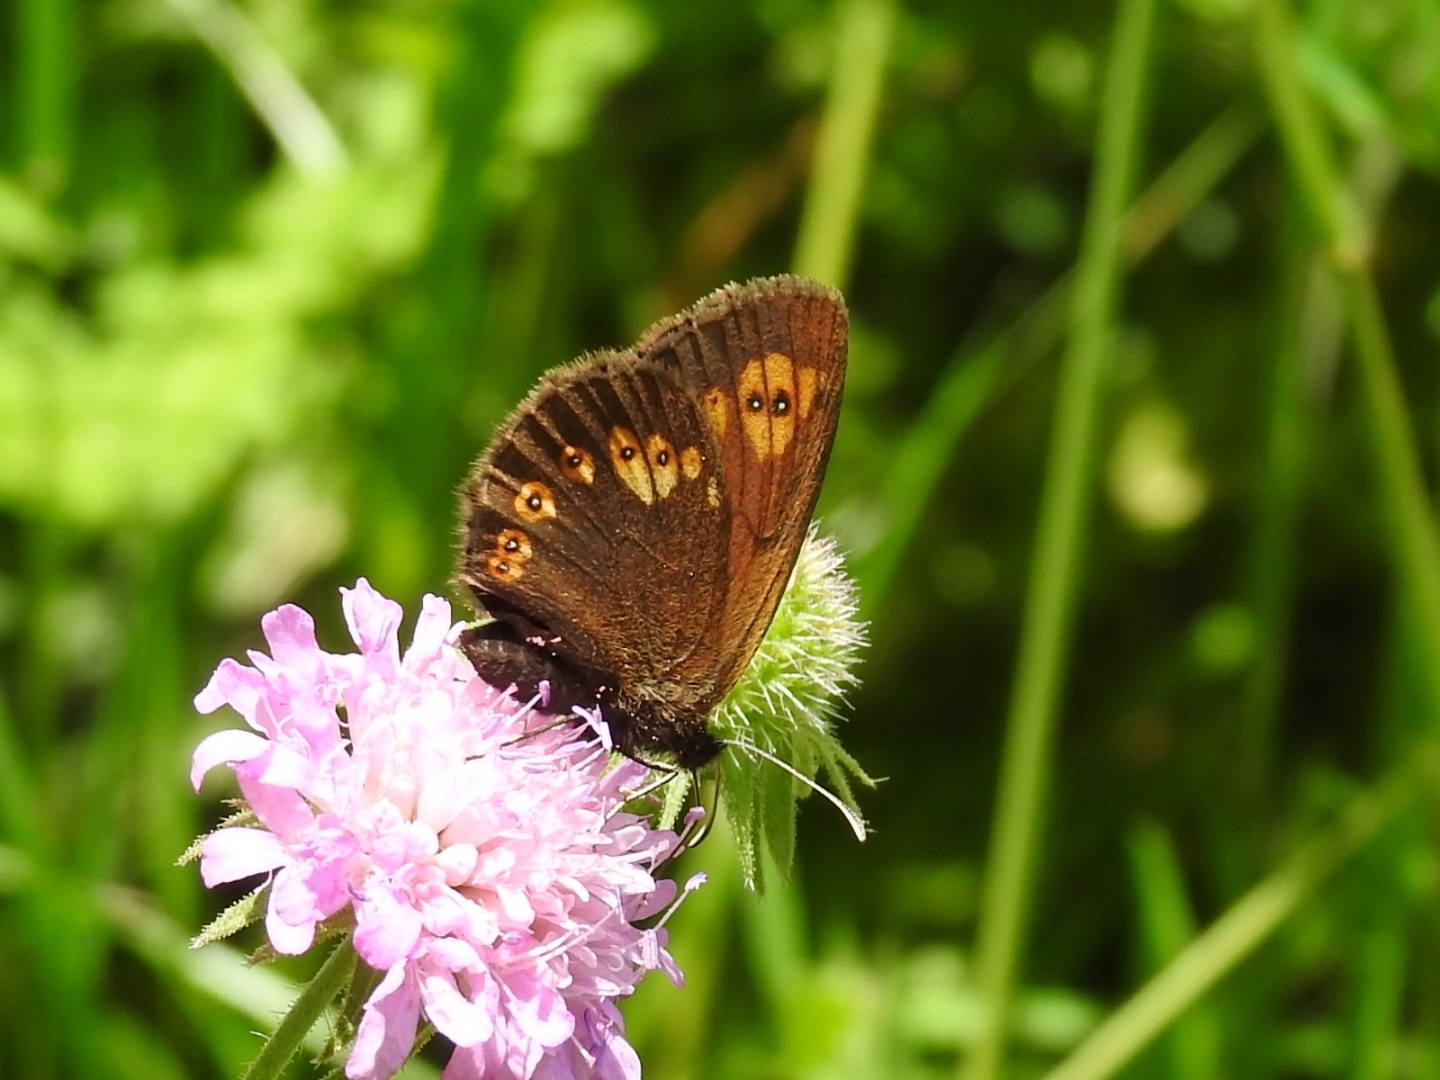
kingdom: Animalia
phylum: Arthropoda
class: Insecta
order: Lepidoptera
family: Nymphalidae
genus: Erebia
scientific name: Erebia alberganus
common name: Almond-eyed ringlet
